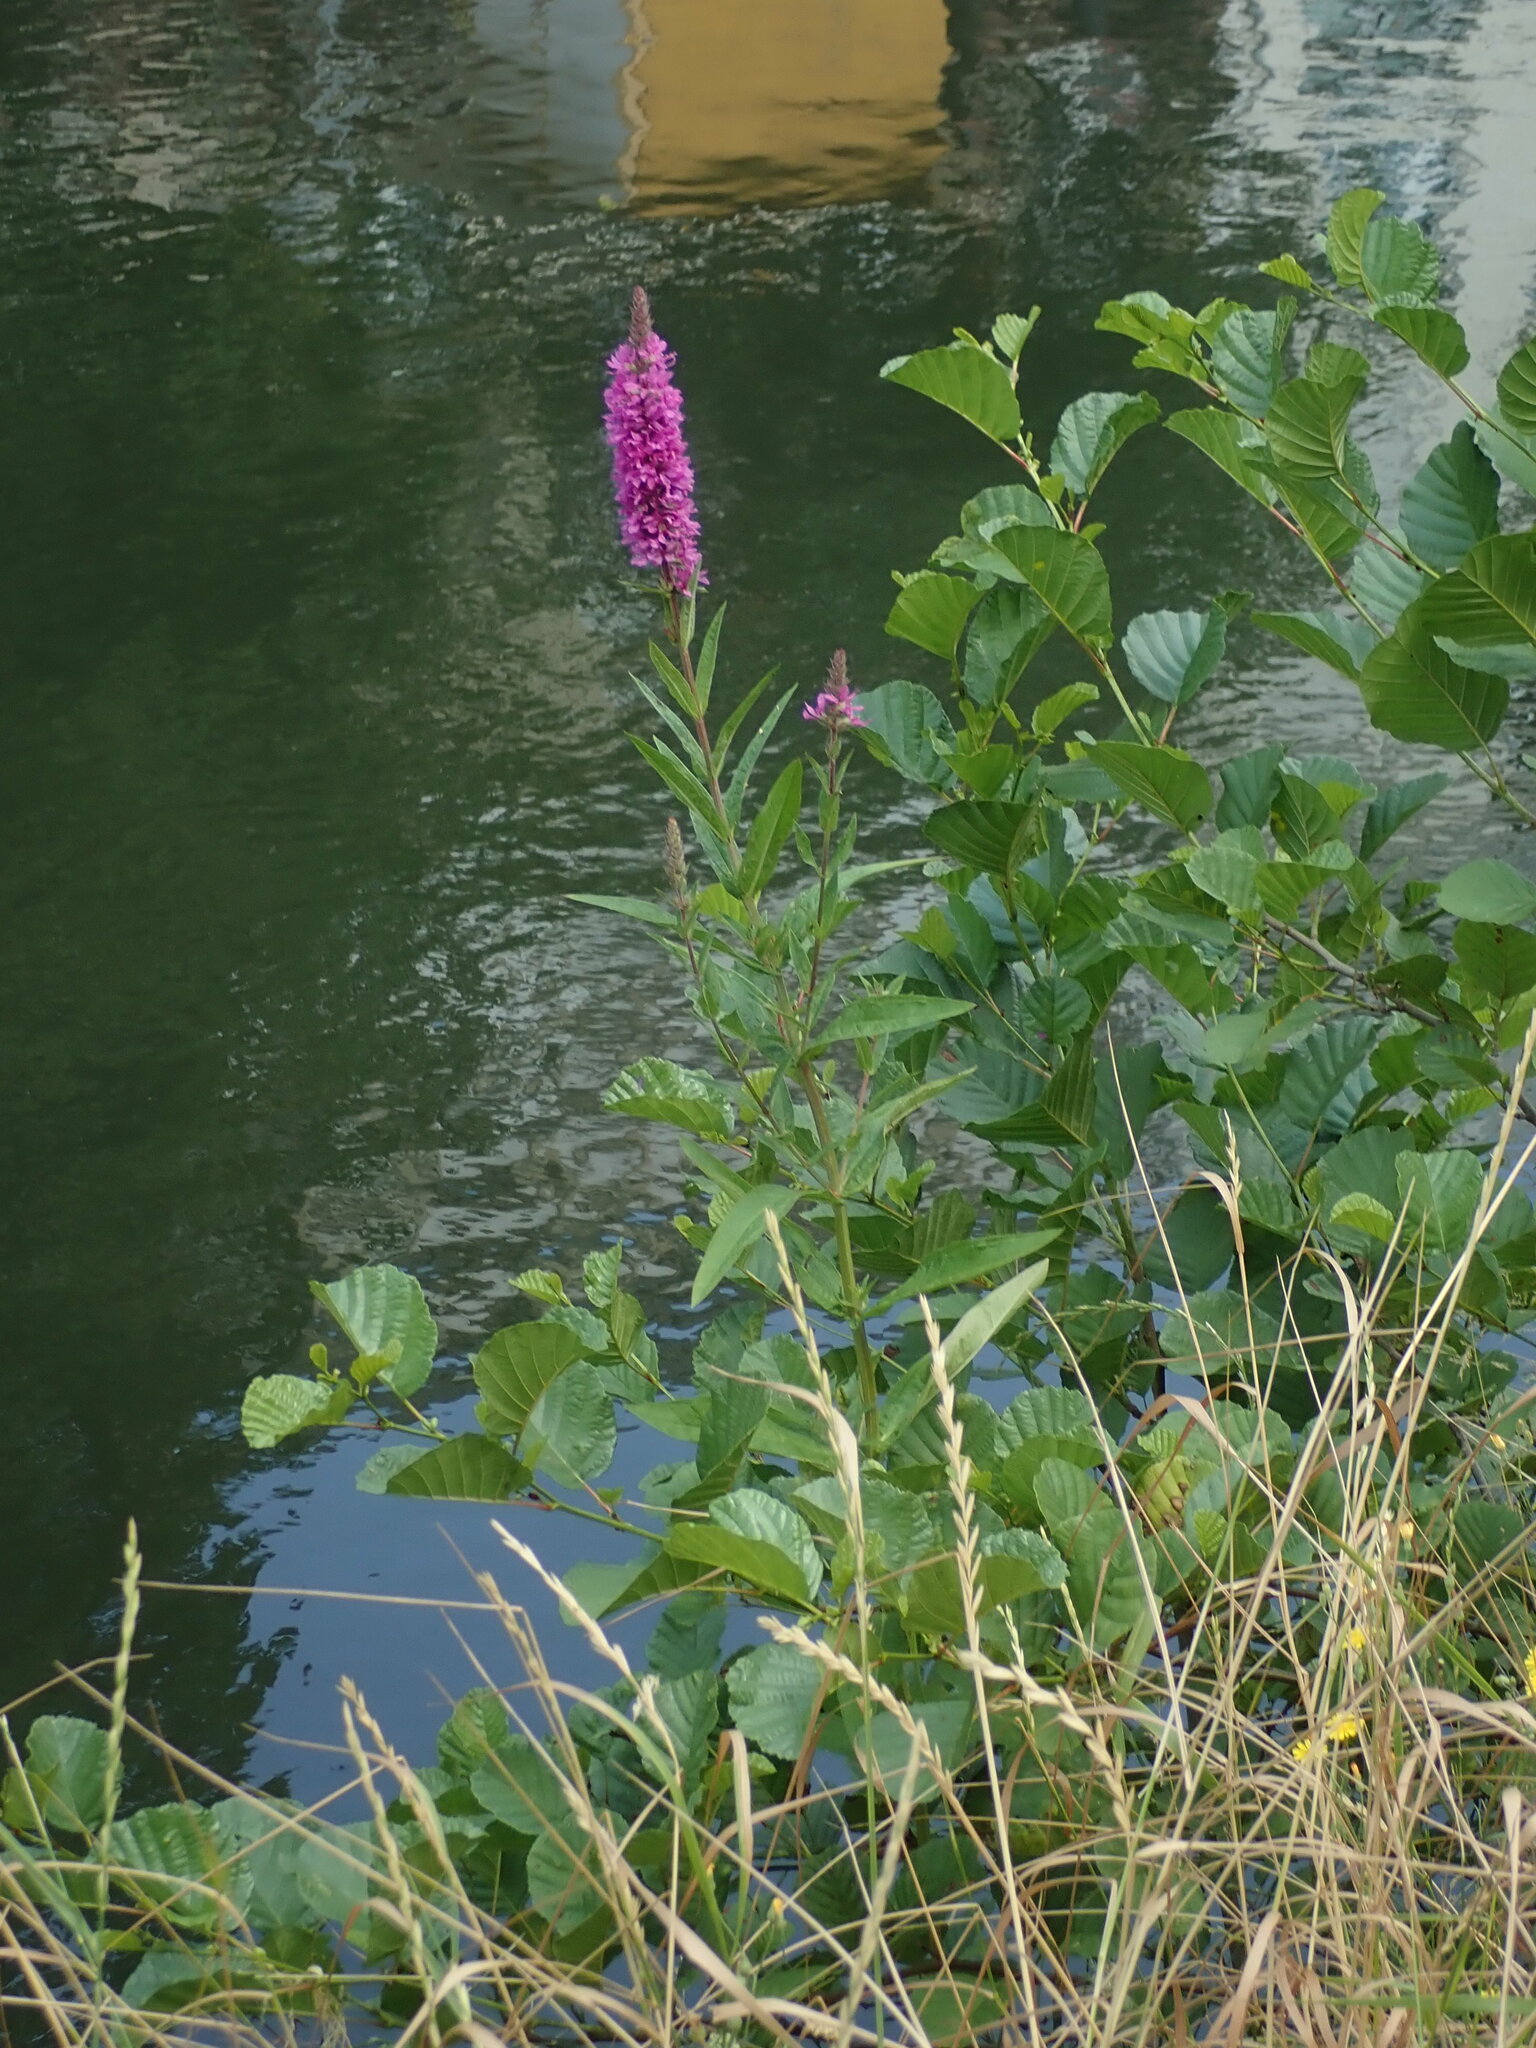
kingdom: Plantae
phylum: Tracheophyta
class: Magnoliopsida
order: Myrtales
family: Lythraceae
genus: Lythrum
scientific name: Lythrum salicaria
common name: Purple loosestrife
